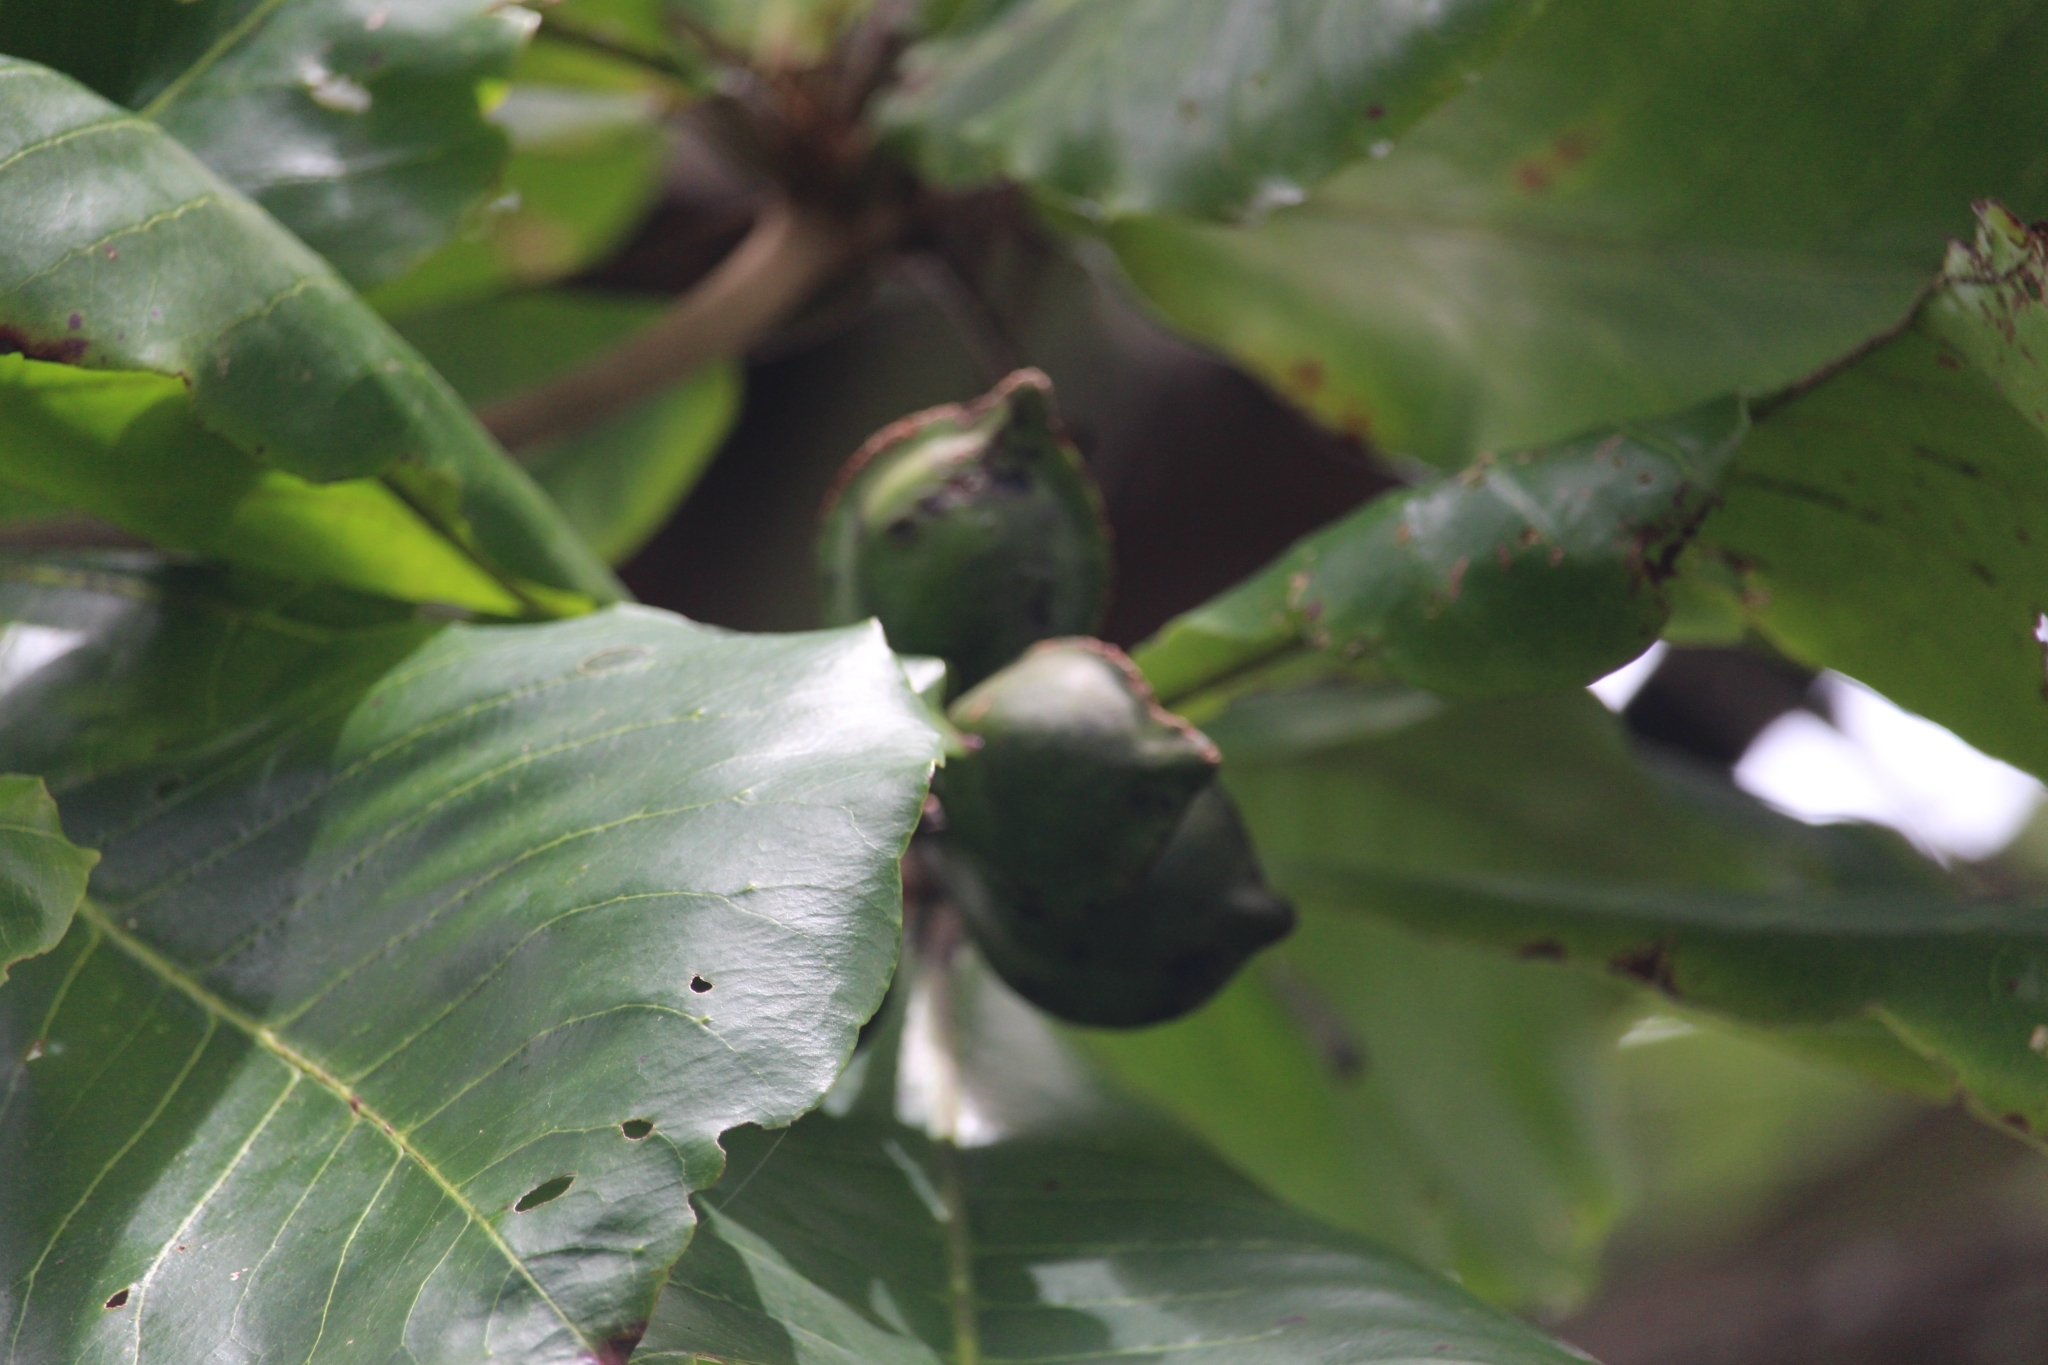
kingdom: Plantae
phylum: Tracheophyta
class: Magnoliopsida
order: Myrtales
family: Combretaceae
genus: Terminalia
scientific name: Terminalia catappa
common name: Tropical almond
